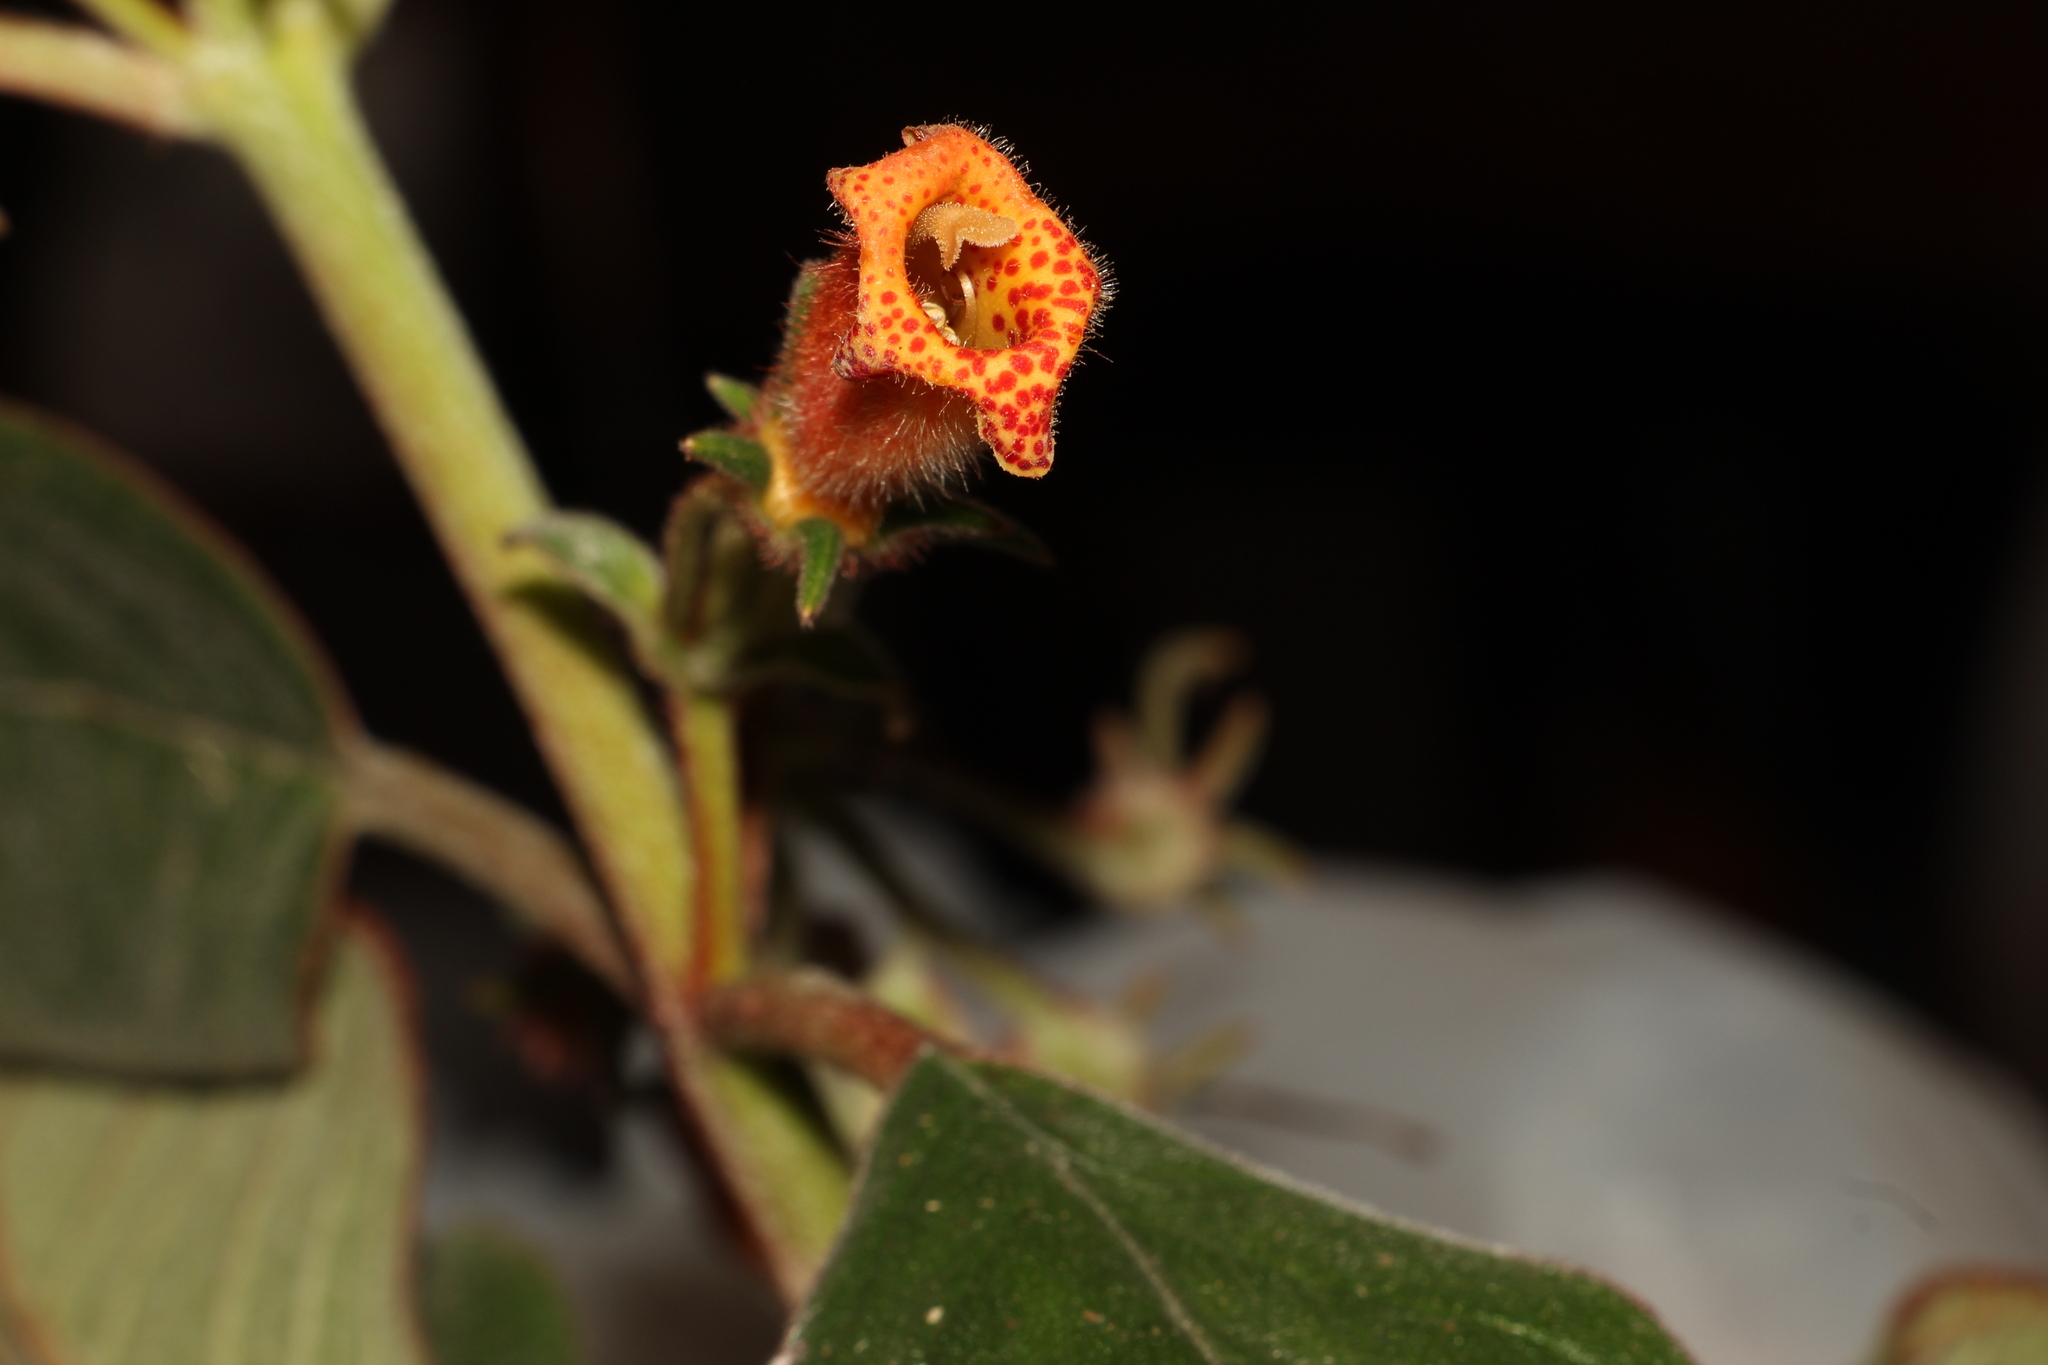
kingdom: Plantae
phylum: Tracheophyta
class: Magnoliopsida
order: Lamiales
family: Gesneriaceae
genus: Kohleria
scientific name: Kohleria hirsuta
